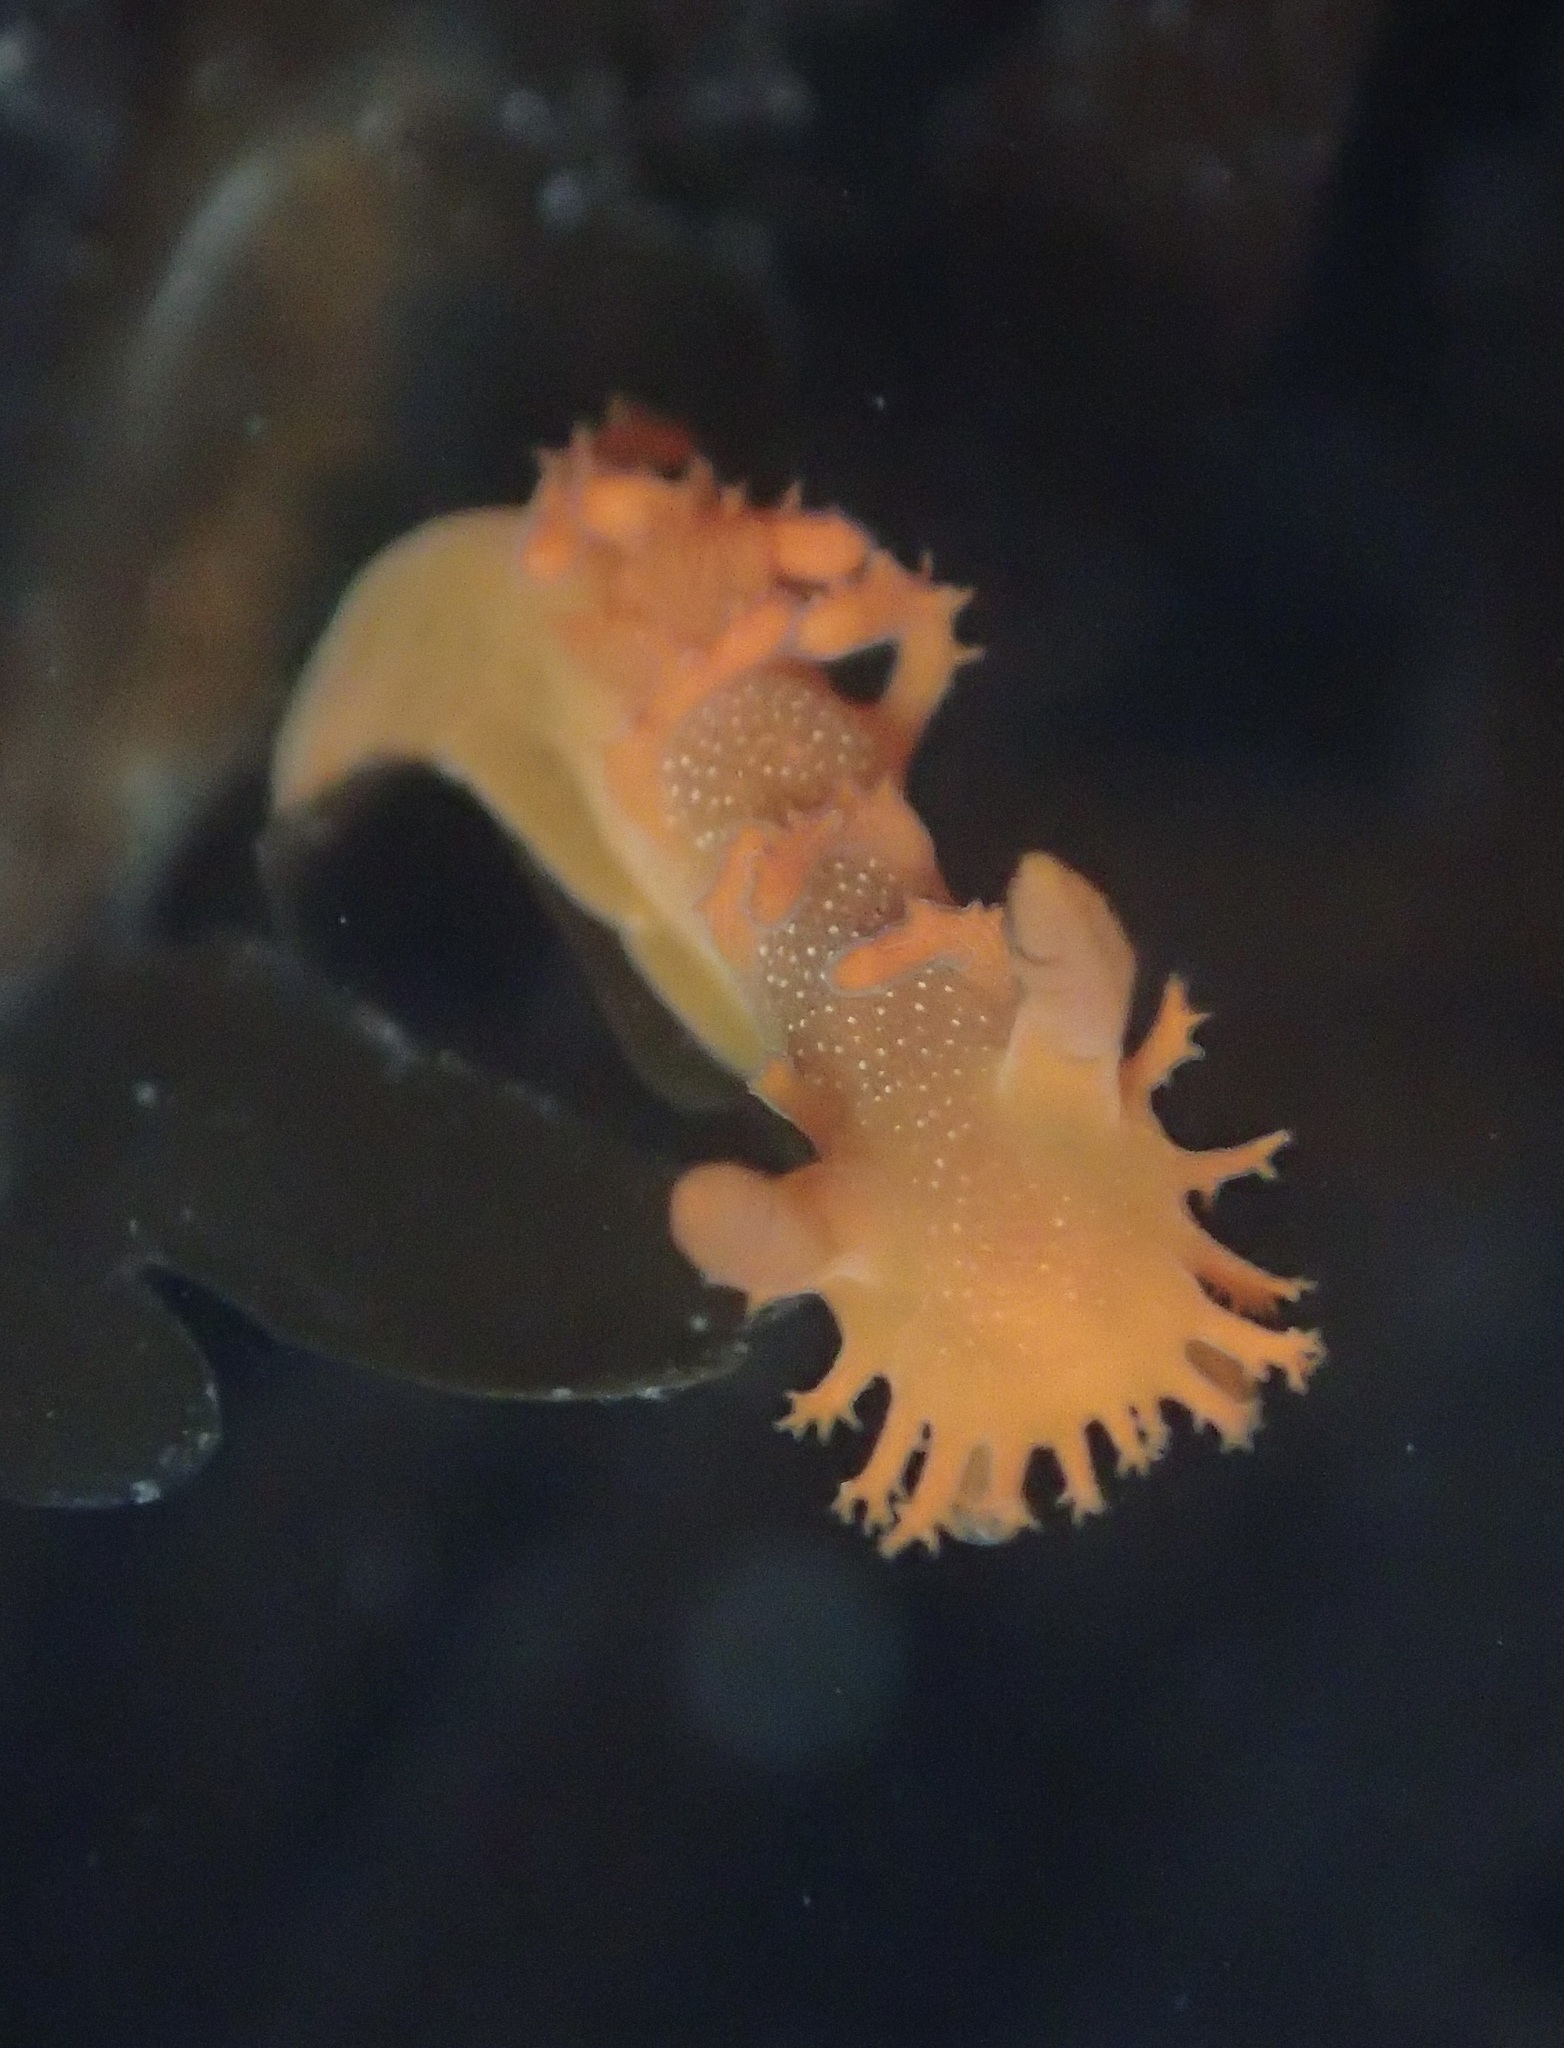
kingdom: Animalia
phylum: Mollusca
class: Gastropoda
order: Nudibranchia
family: Polyceridae
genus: Triopha
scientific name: Triopha maculata
